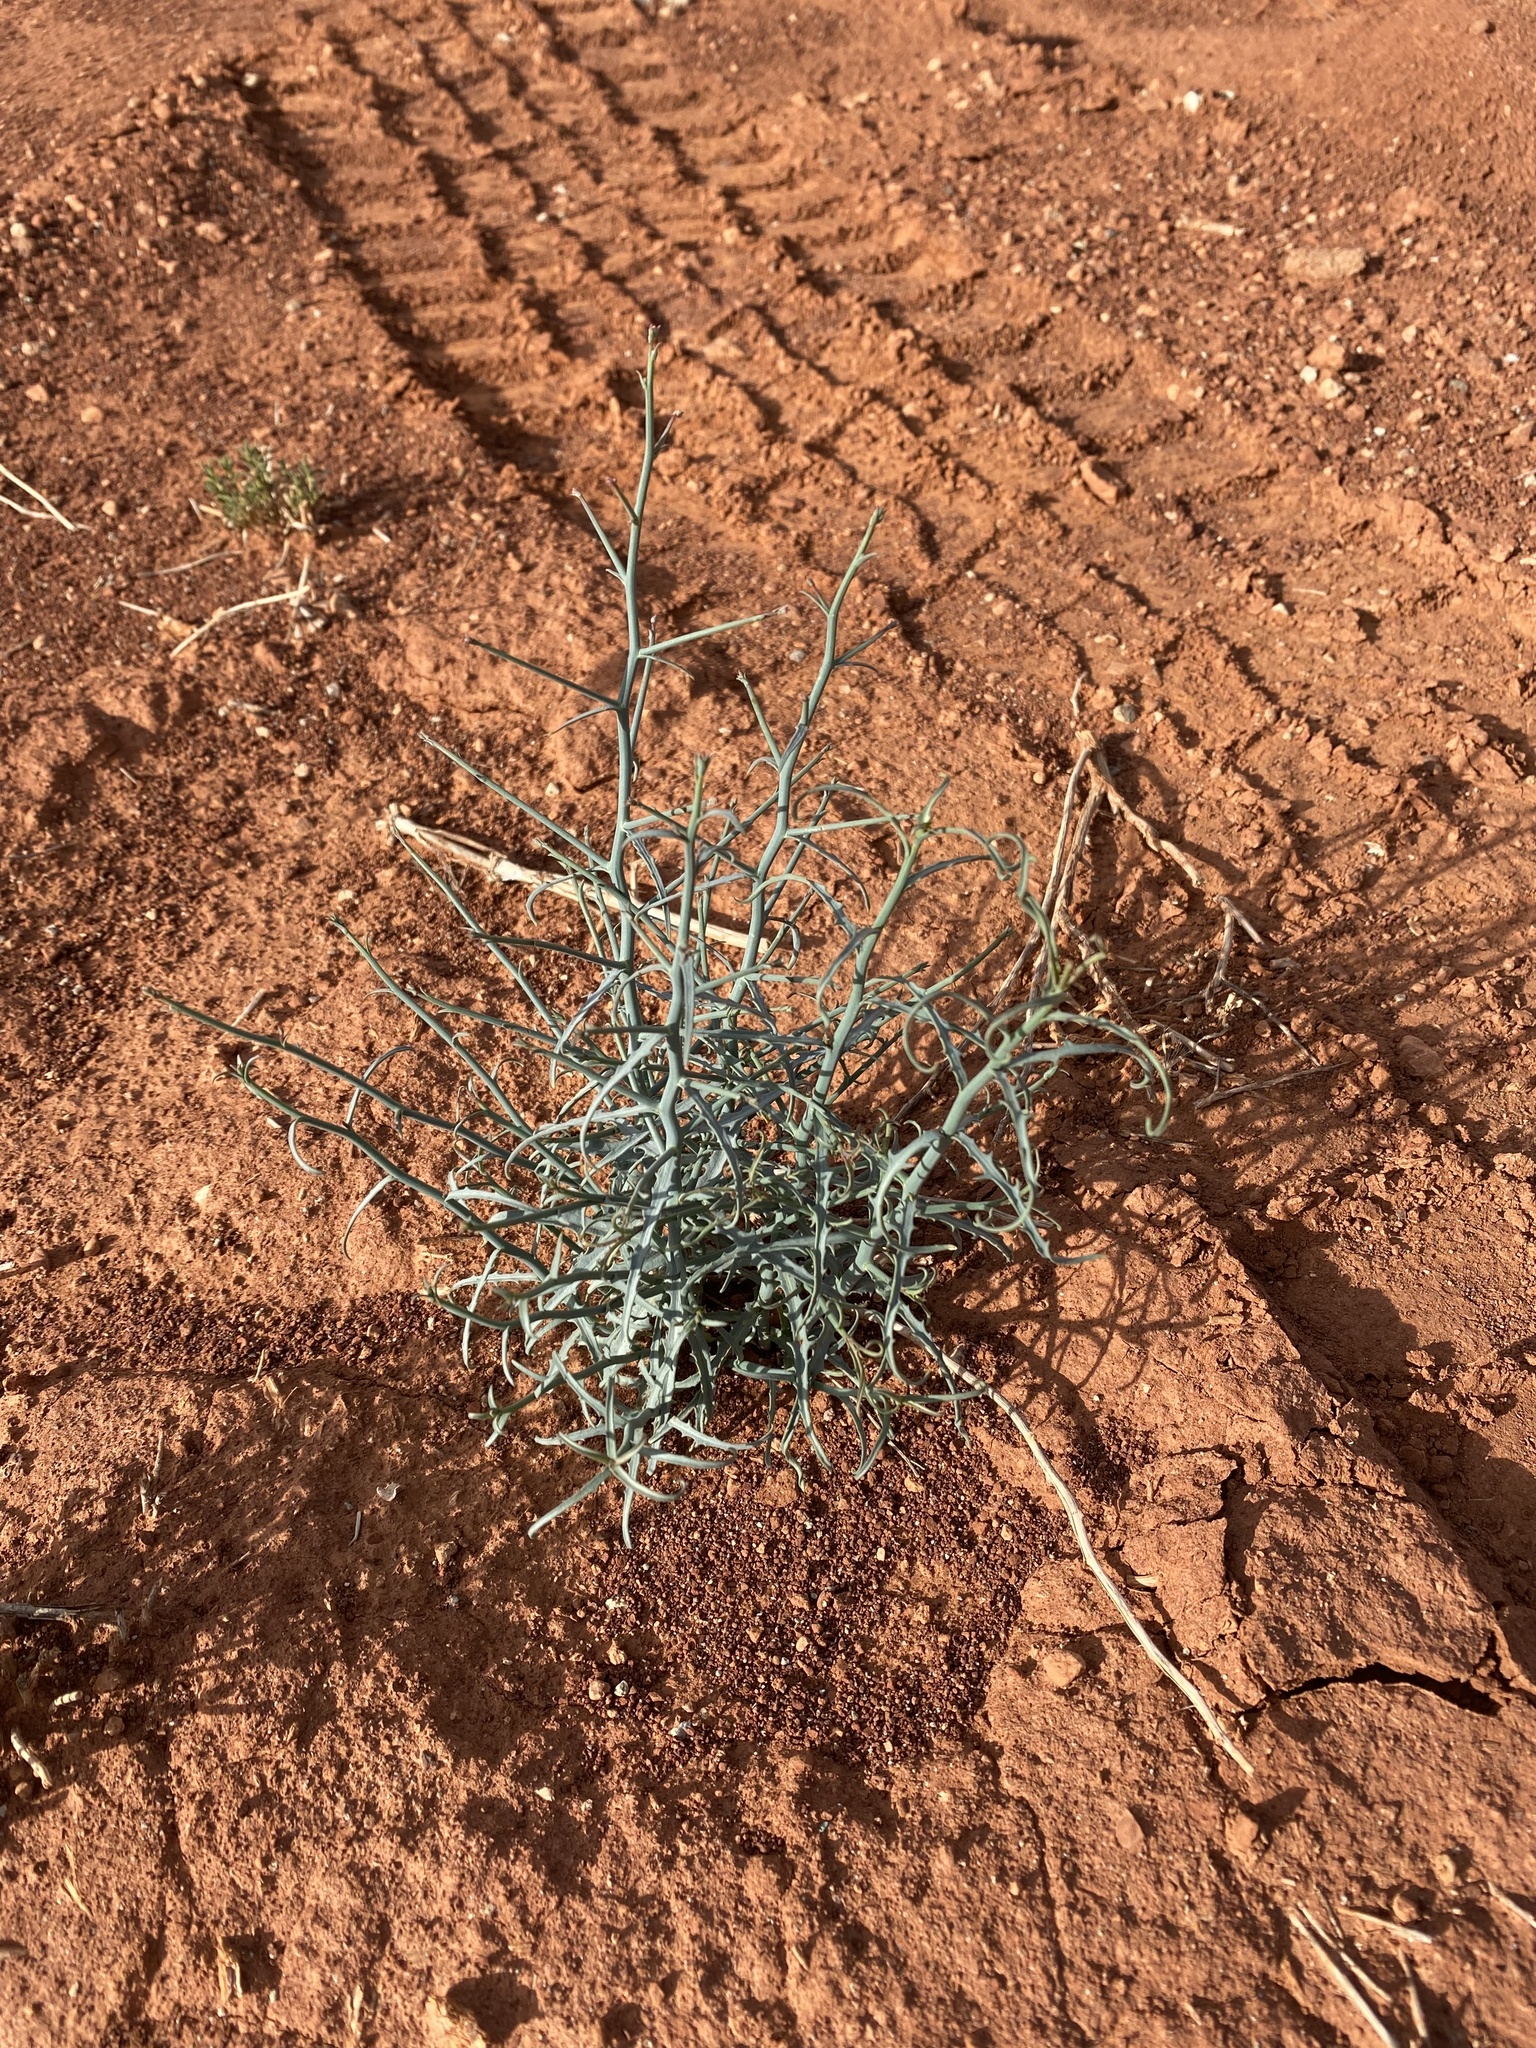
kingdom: Plantae
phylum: Tracheophyta
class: Magnoliopsida
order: Asterales
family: Asteraceae
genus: Stephanomeria
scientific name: Stephanomeria
